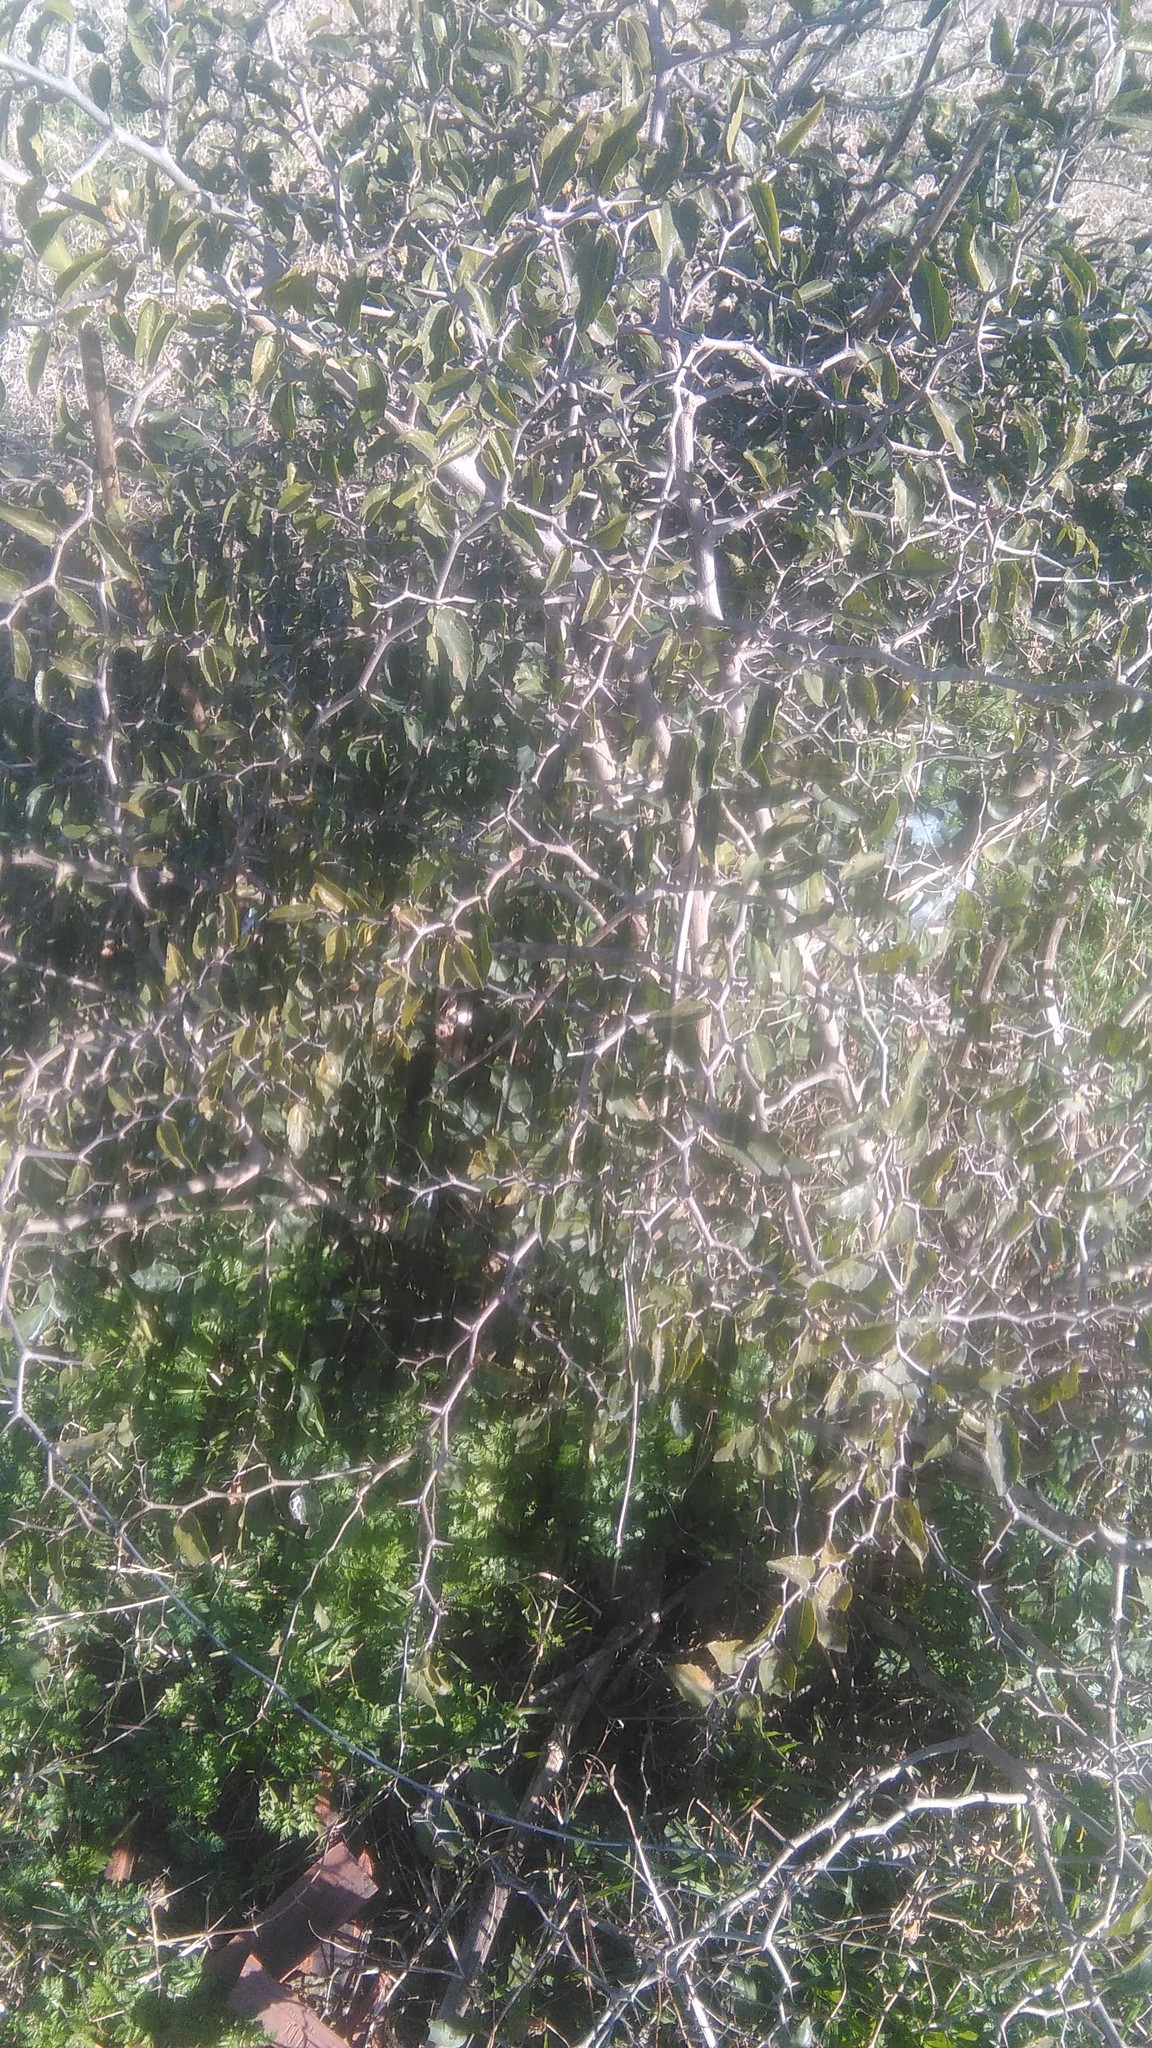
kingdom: Plantae
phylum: Tracheophyta
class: Magnoliopsida
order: Rosales
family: Cannabaceae
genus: Celtis
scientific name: Celtis tala
